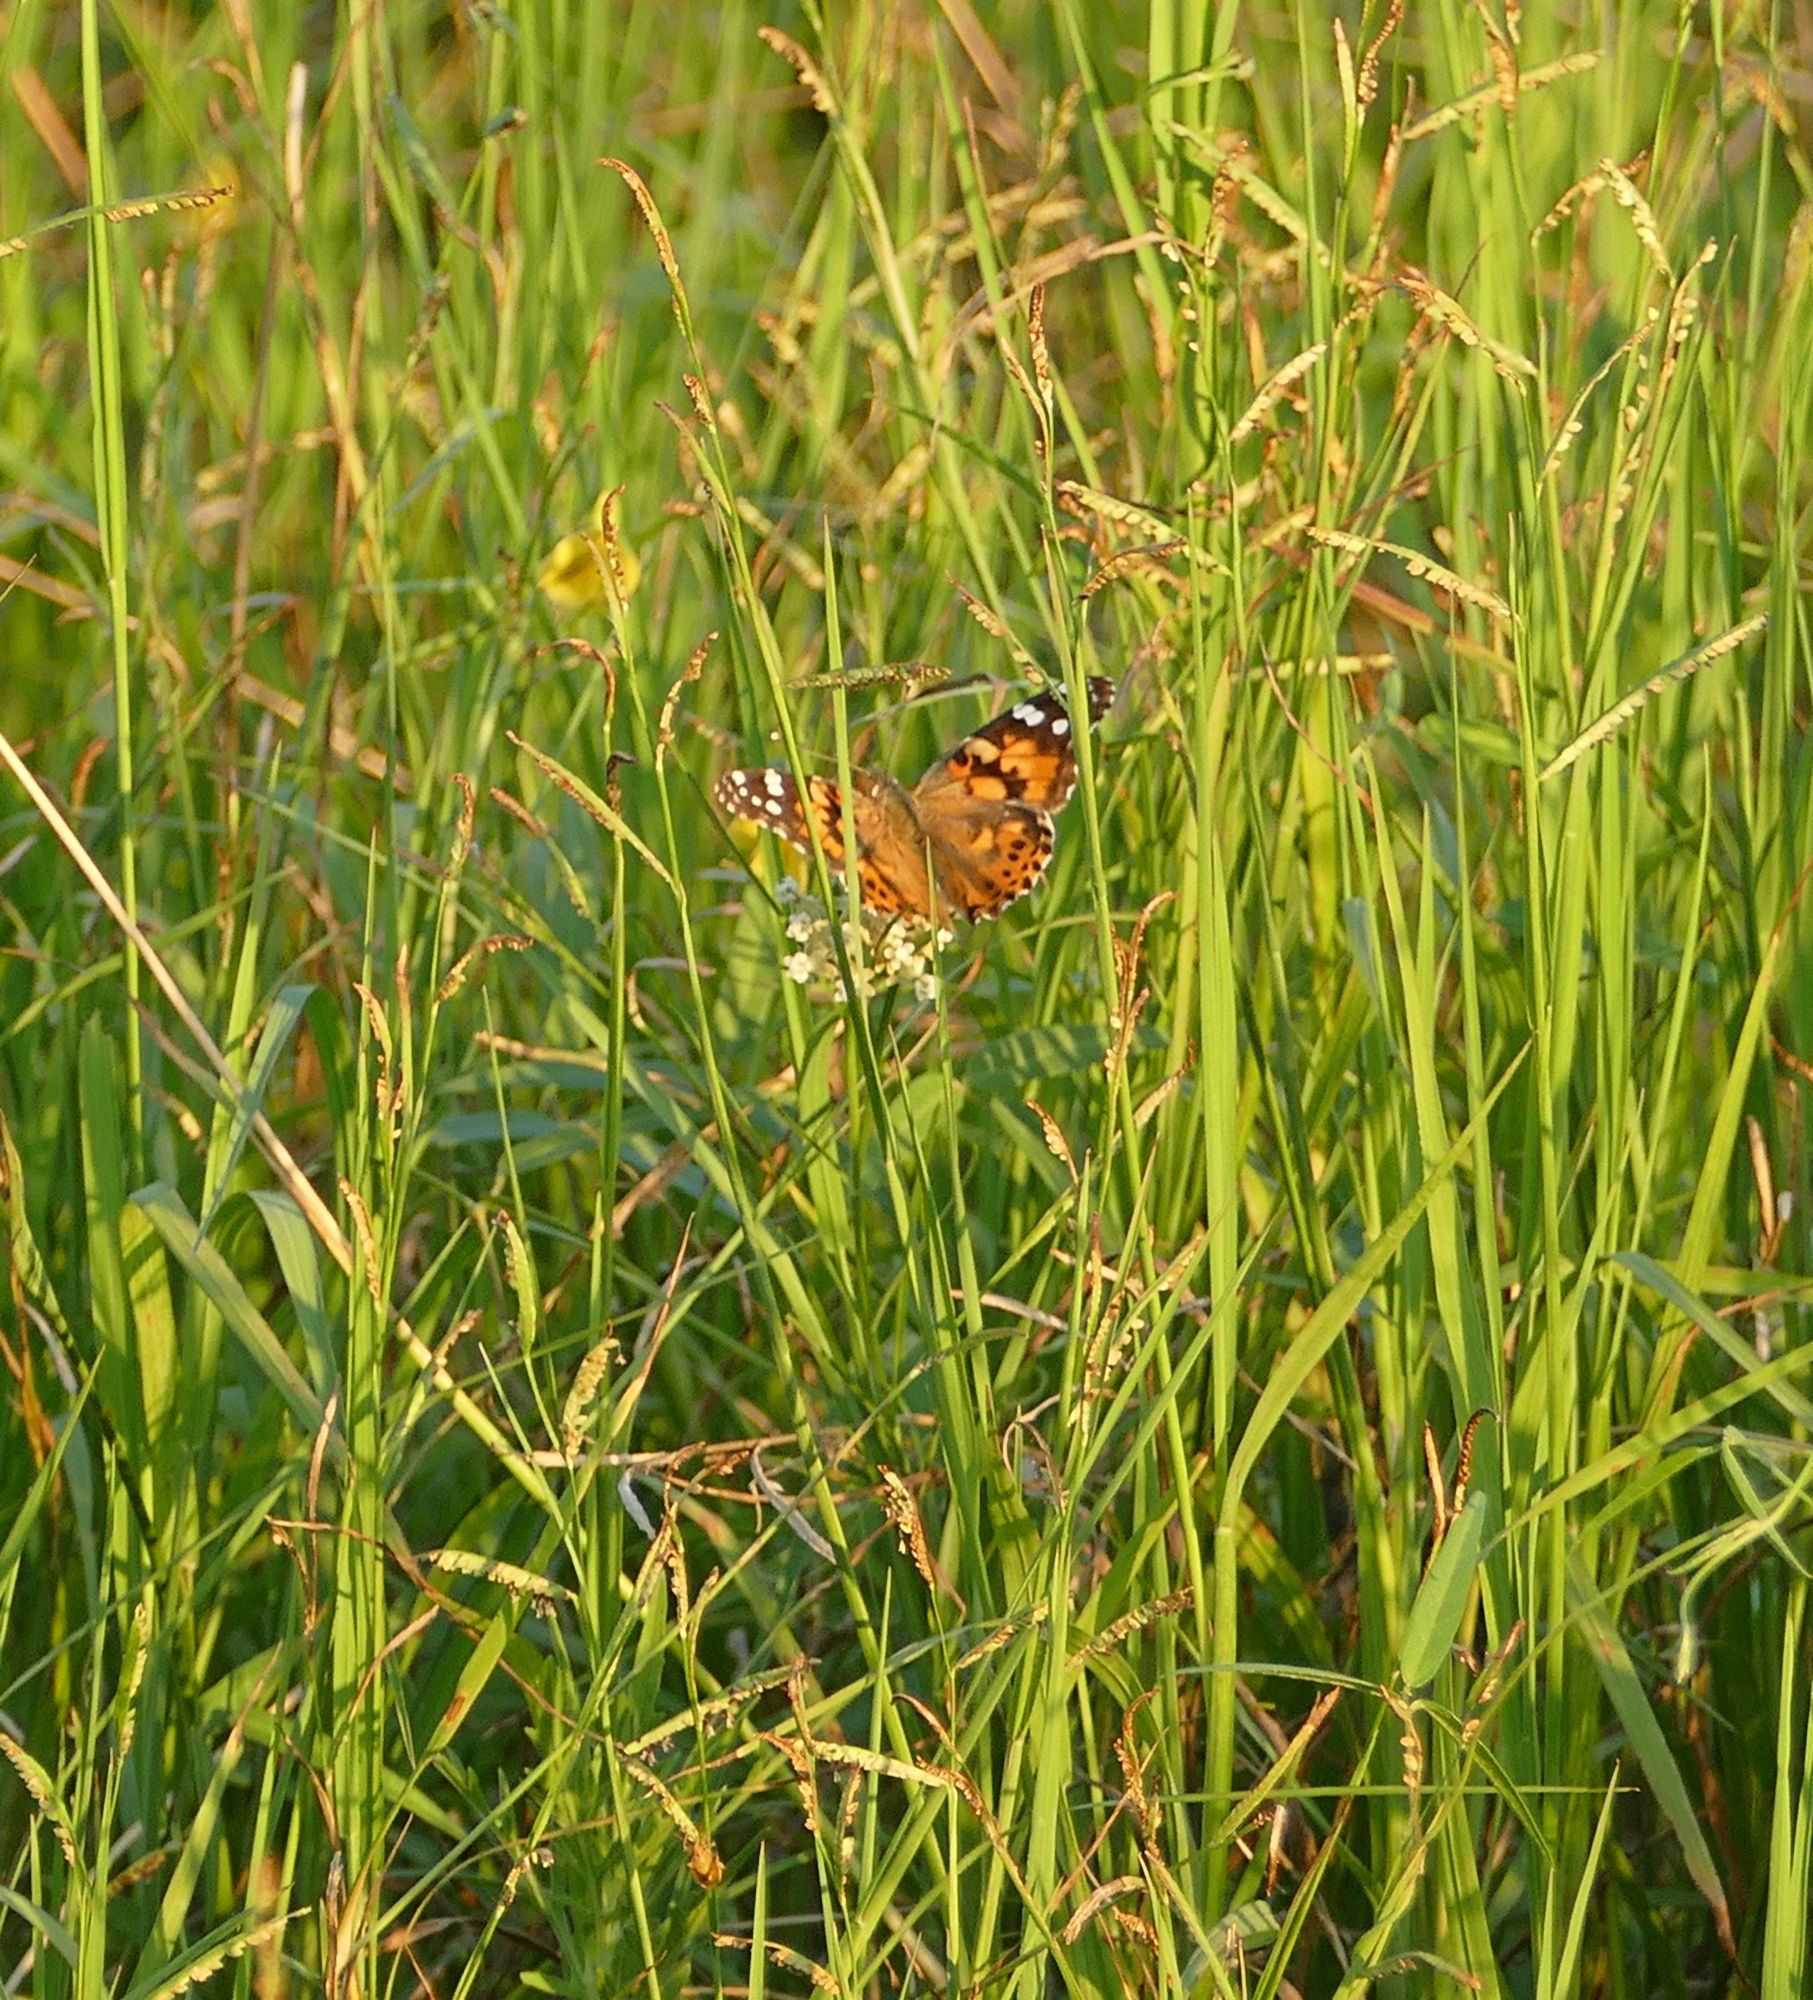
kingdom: Animalia
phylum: Arthropoda
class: Insecta
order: Lepidoptera
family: Nymphalidae
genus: Vanessa
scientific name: Vanessa cardui
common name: Painted lady
